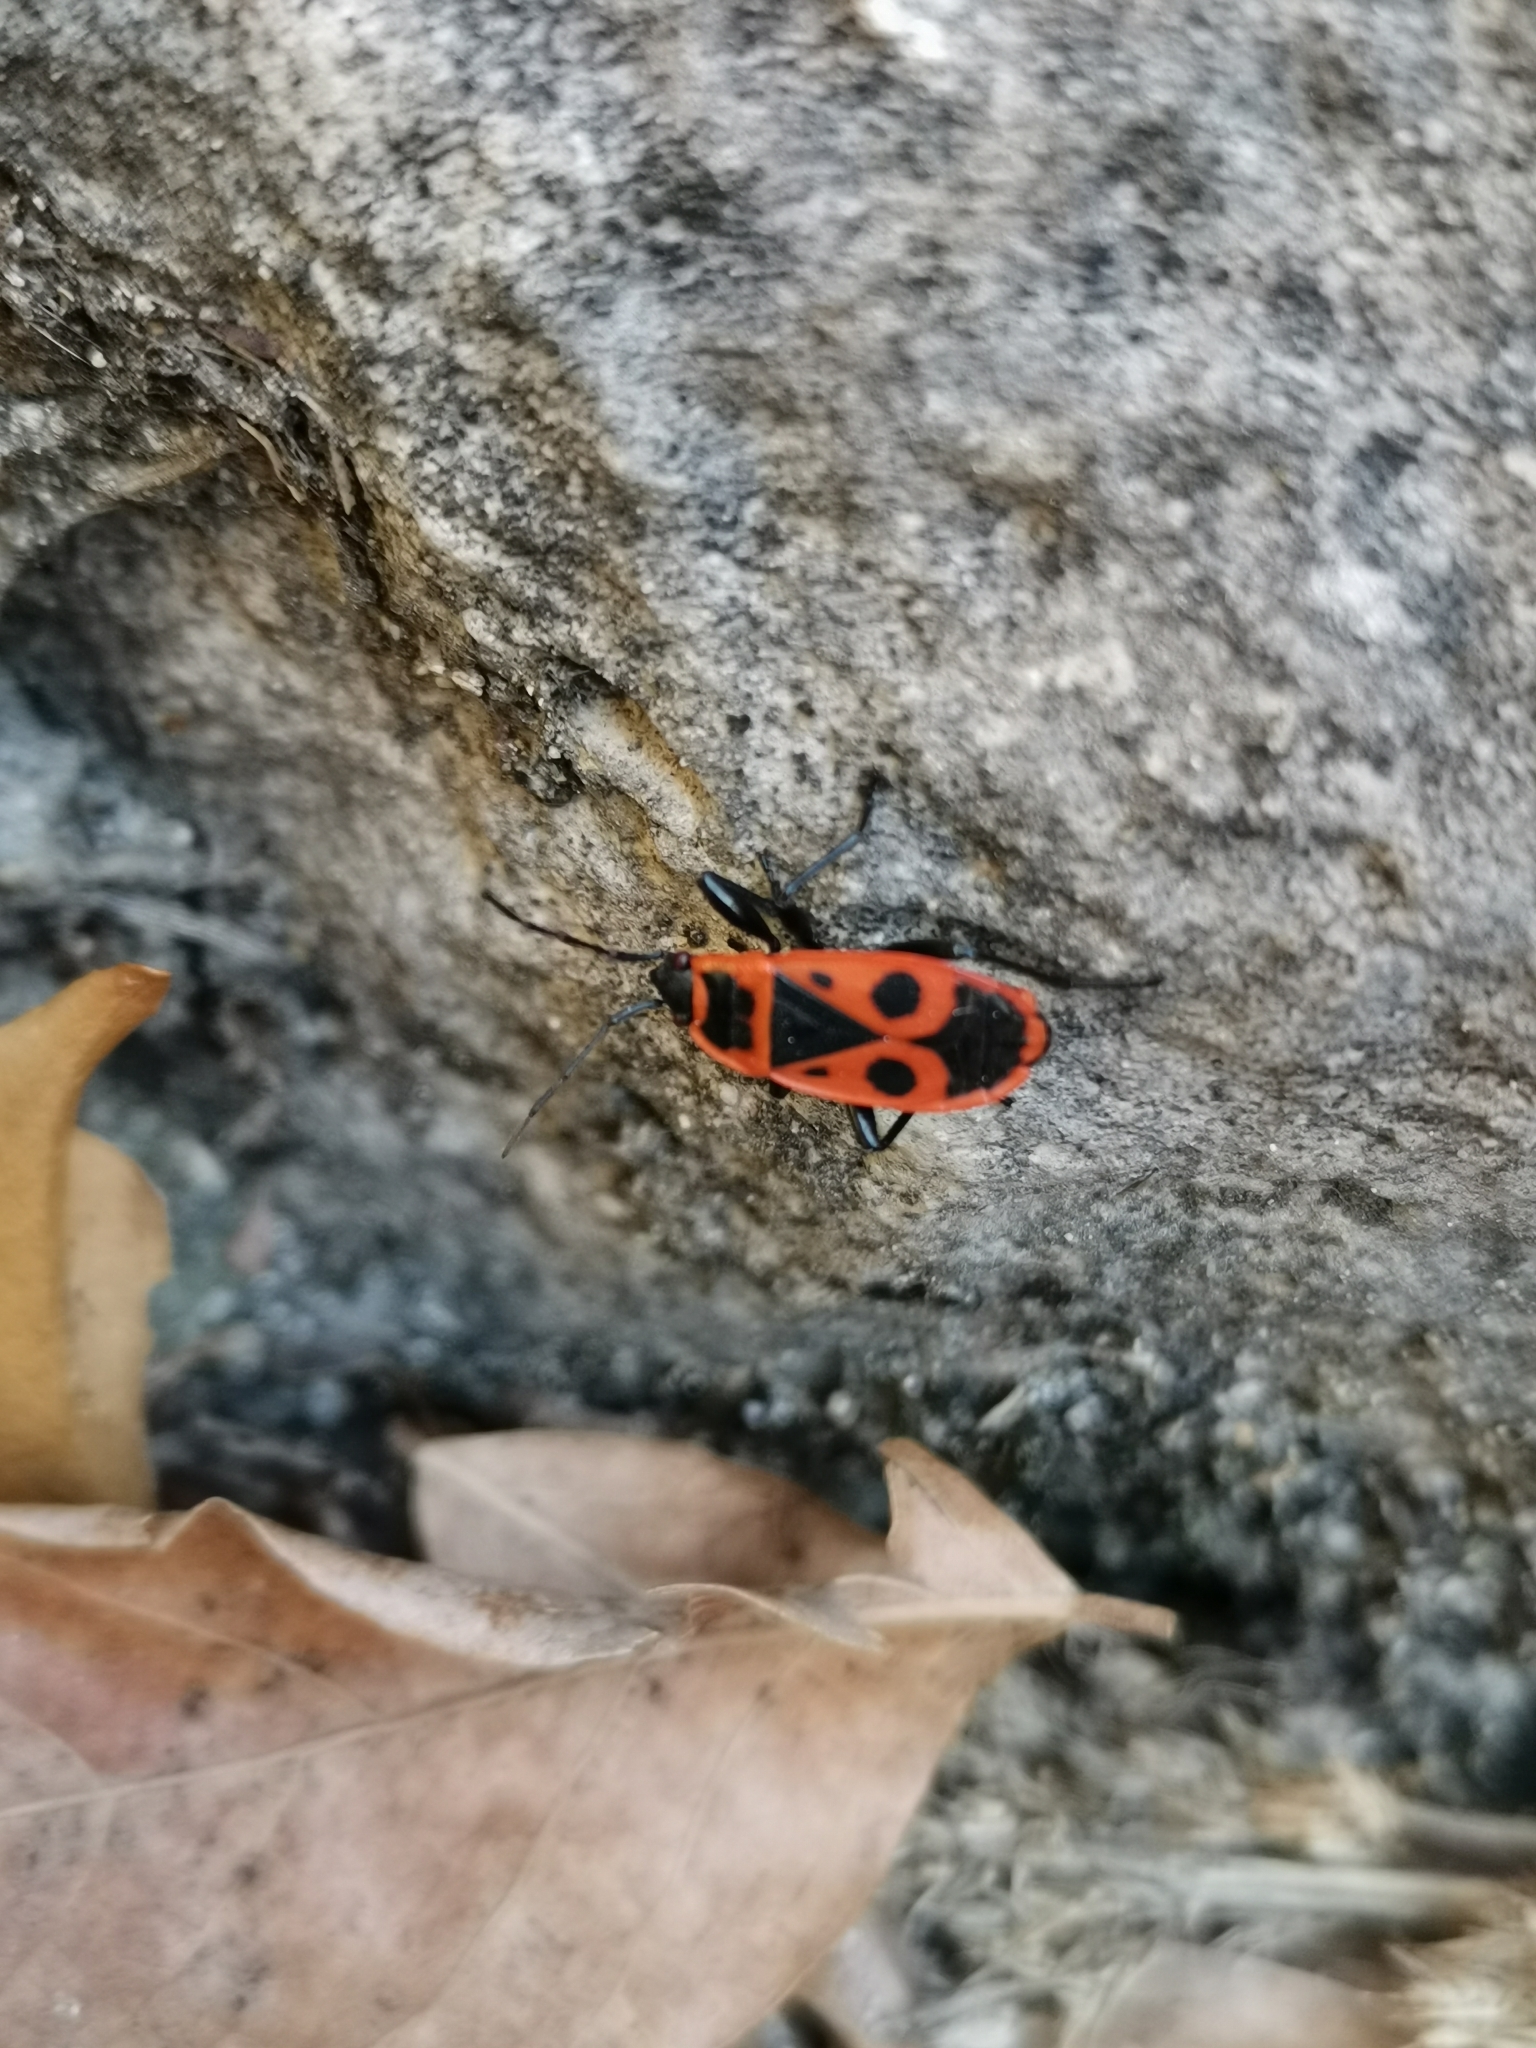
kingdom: Animalia
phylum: Arthropoda
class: Insecta
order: Hemiptera
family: Pyrrhocoridae
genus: Pyrrhocoris
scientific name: Pyrrhocoris apterus
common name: Firebug
